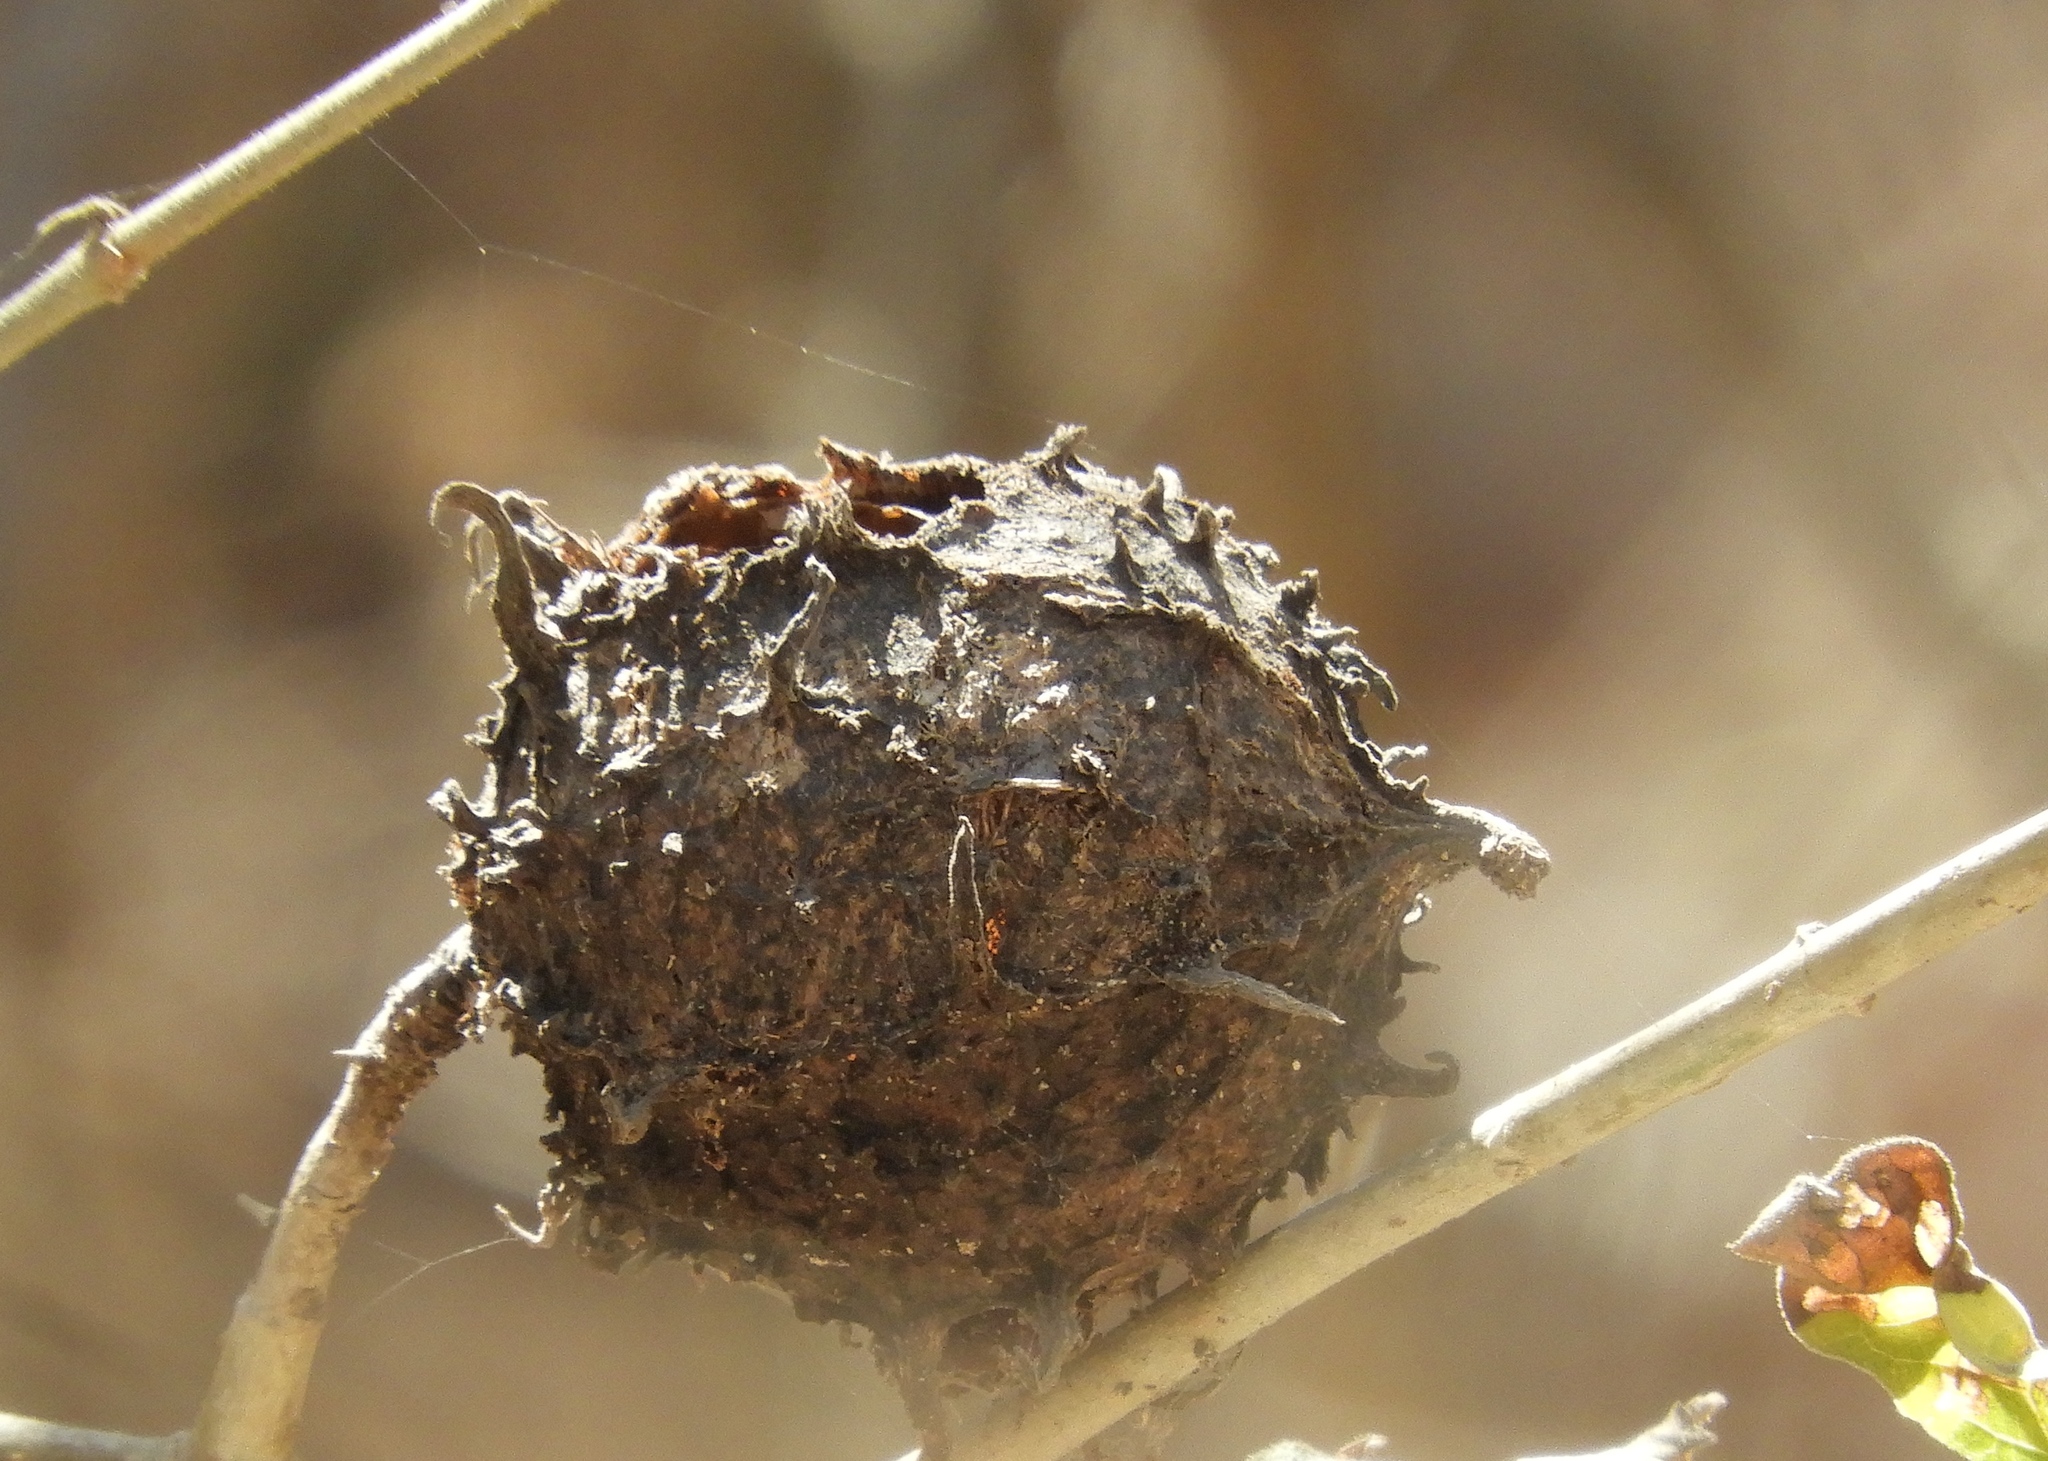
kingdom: Plantae
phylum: Tracheophyta
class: Magnoliopsida
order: Gentianales
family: Rubiaceae
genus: Randia
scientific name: Randia echinocarpa
